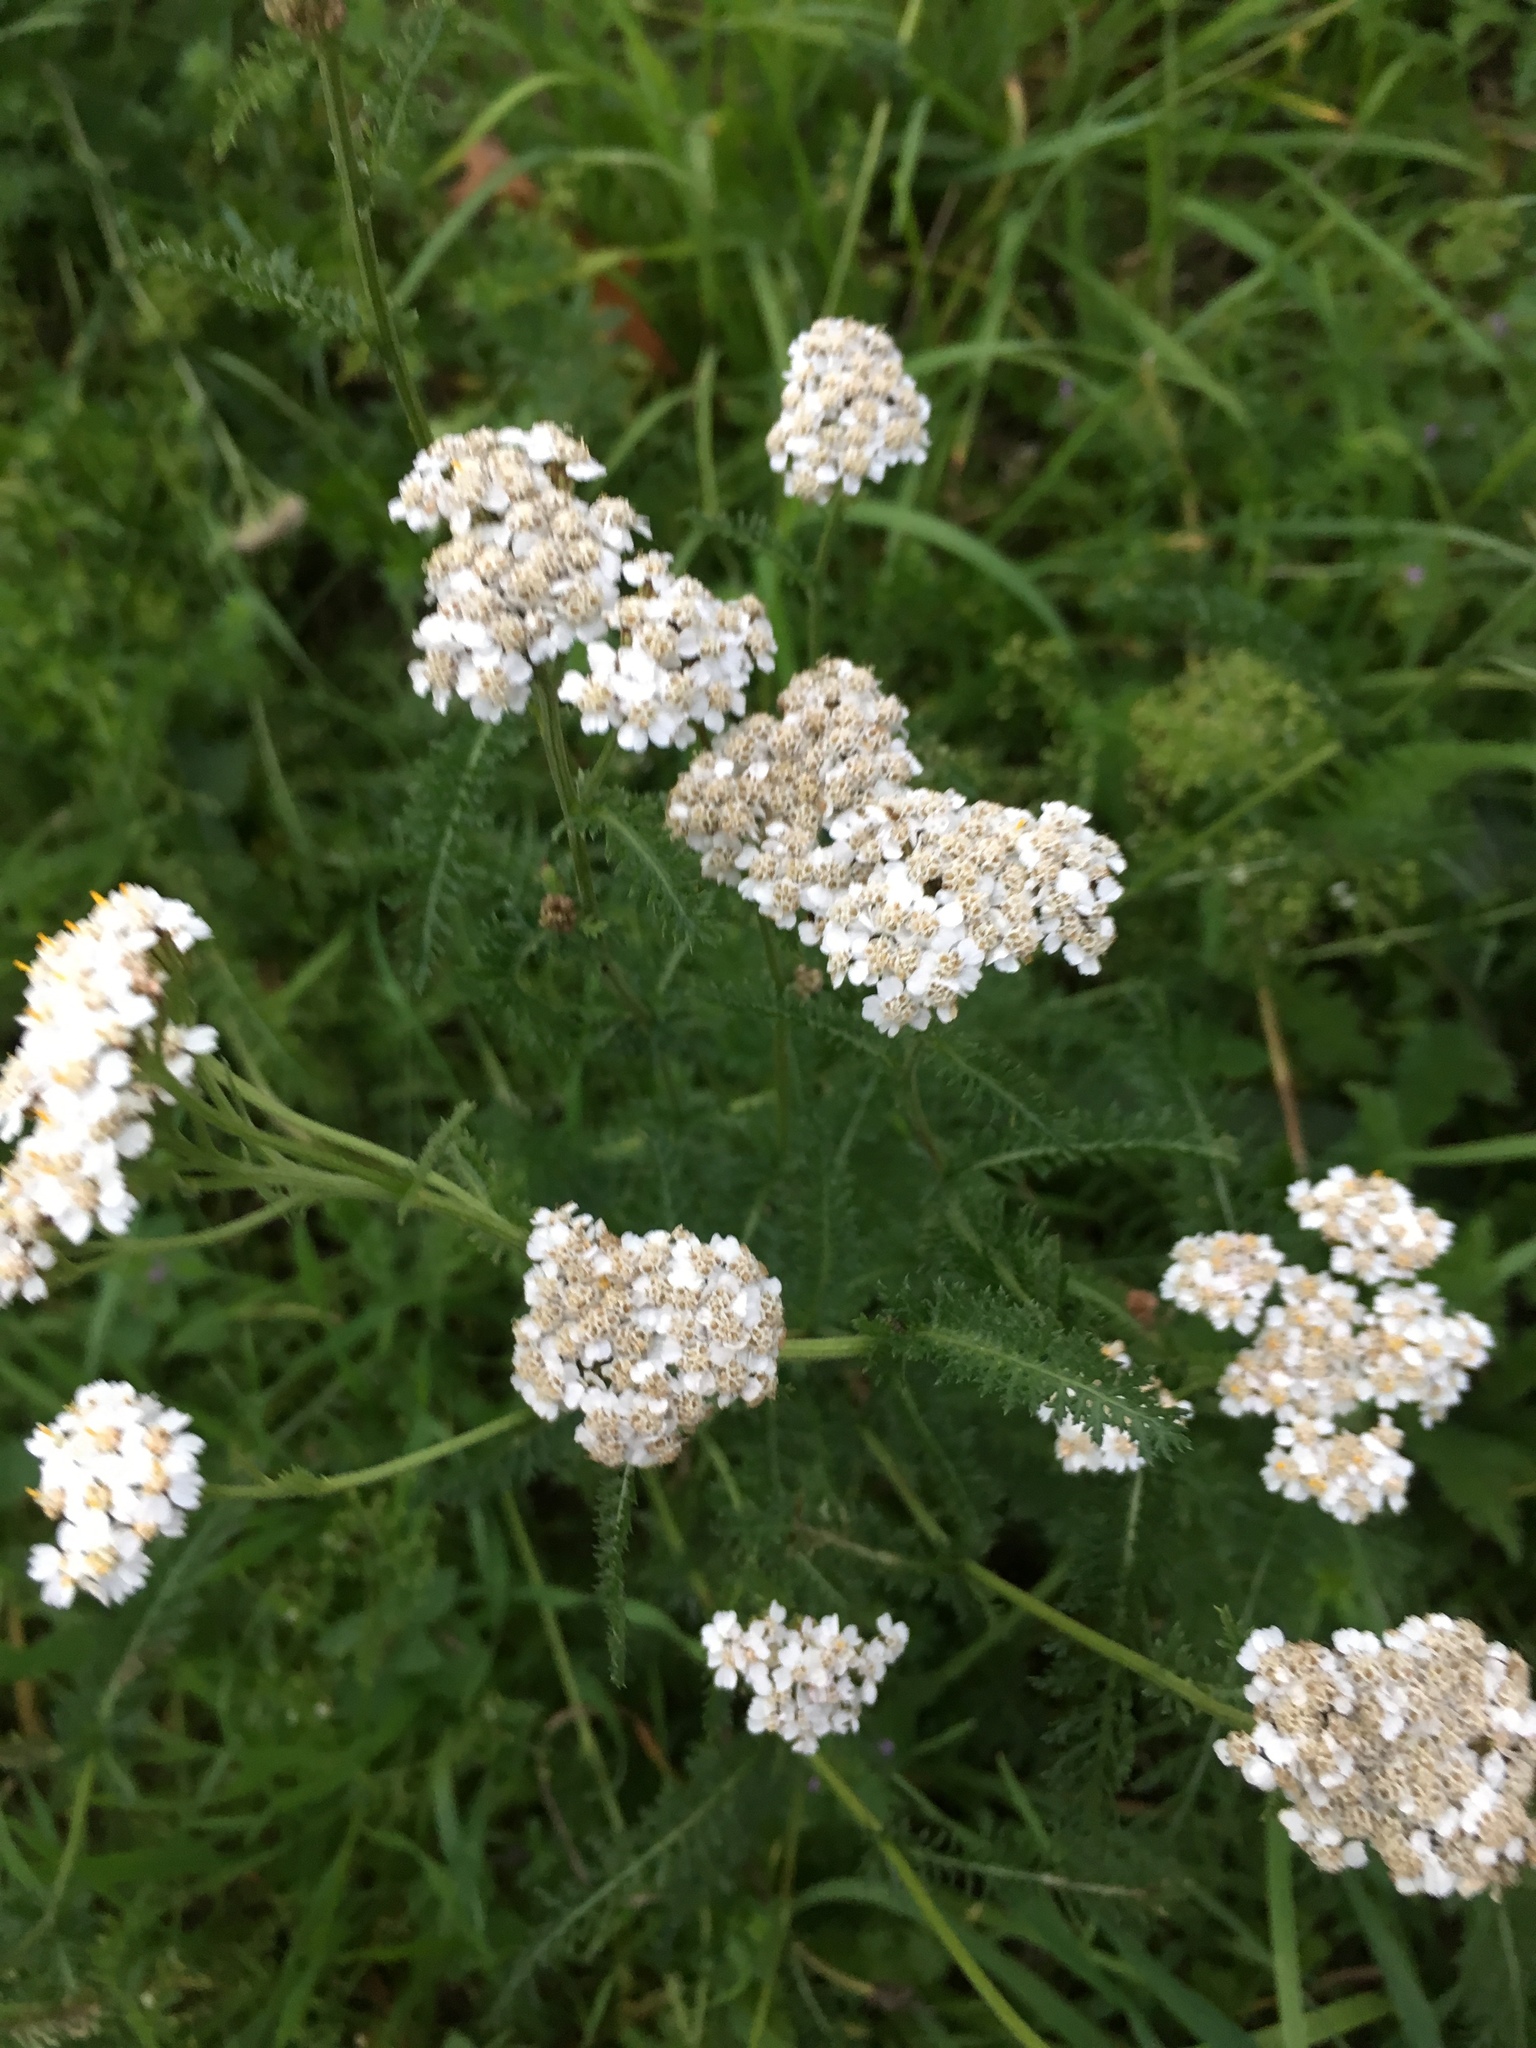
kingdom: Plantae
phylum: Tracheophyta
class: Magnoliopsida
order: Asterales
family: Asteraceae
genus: Achillea
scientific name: Achillea millefolium
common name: Yarrow
